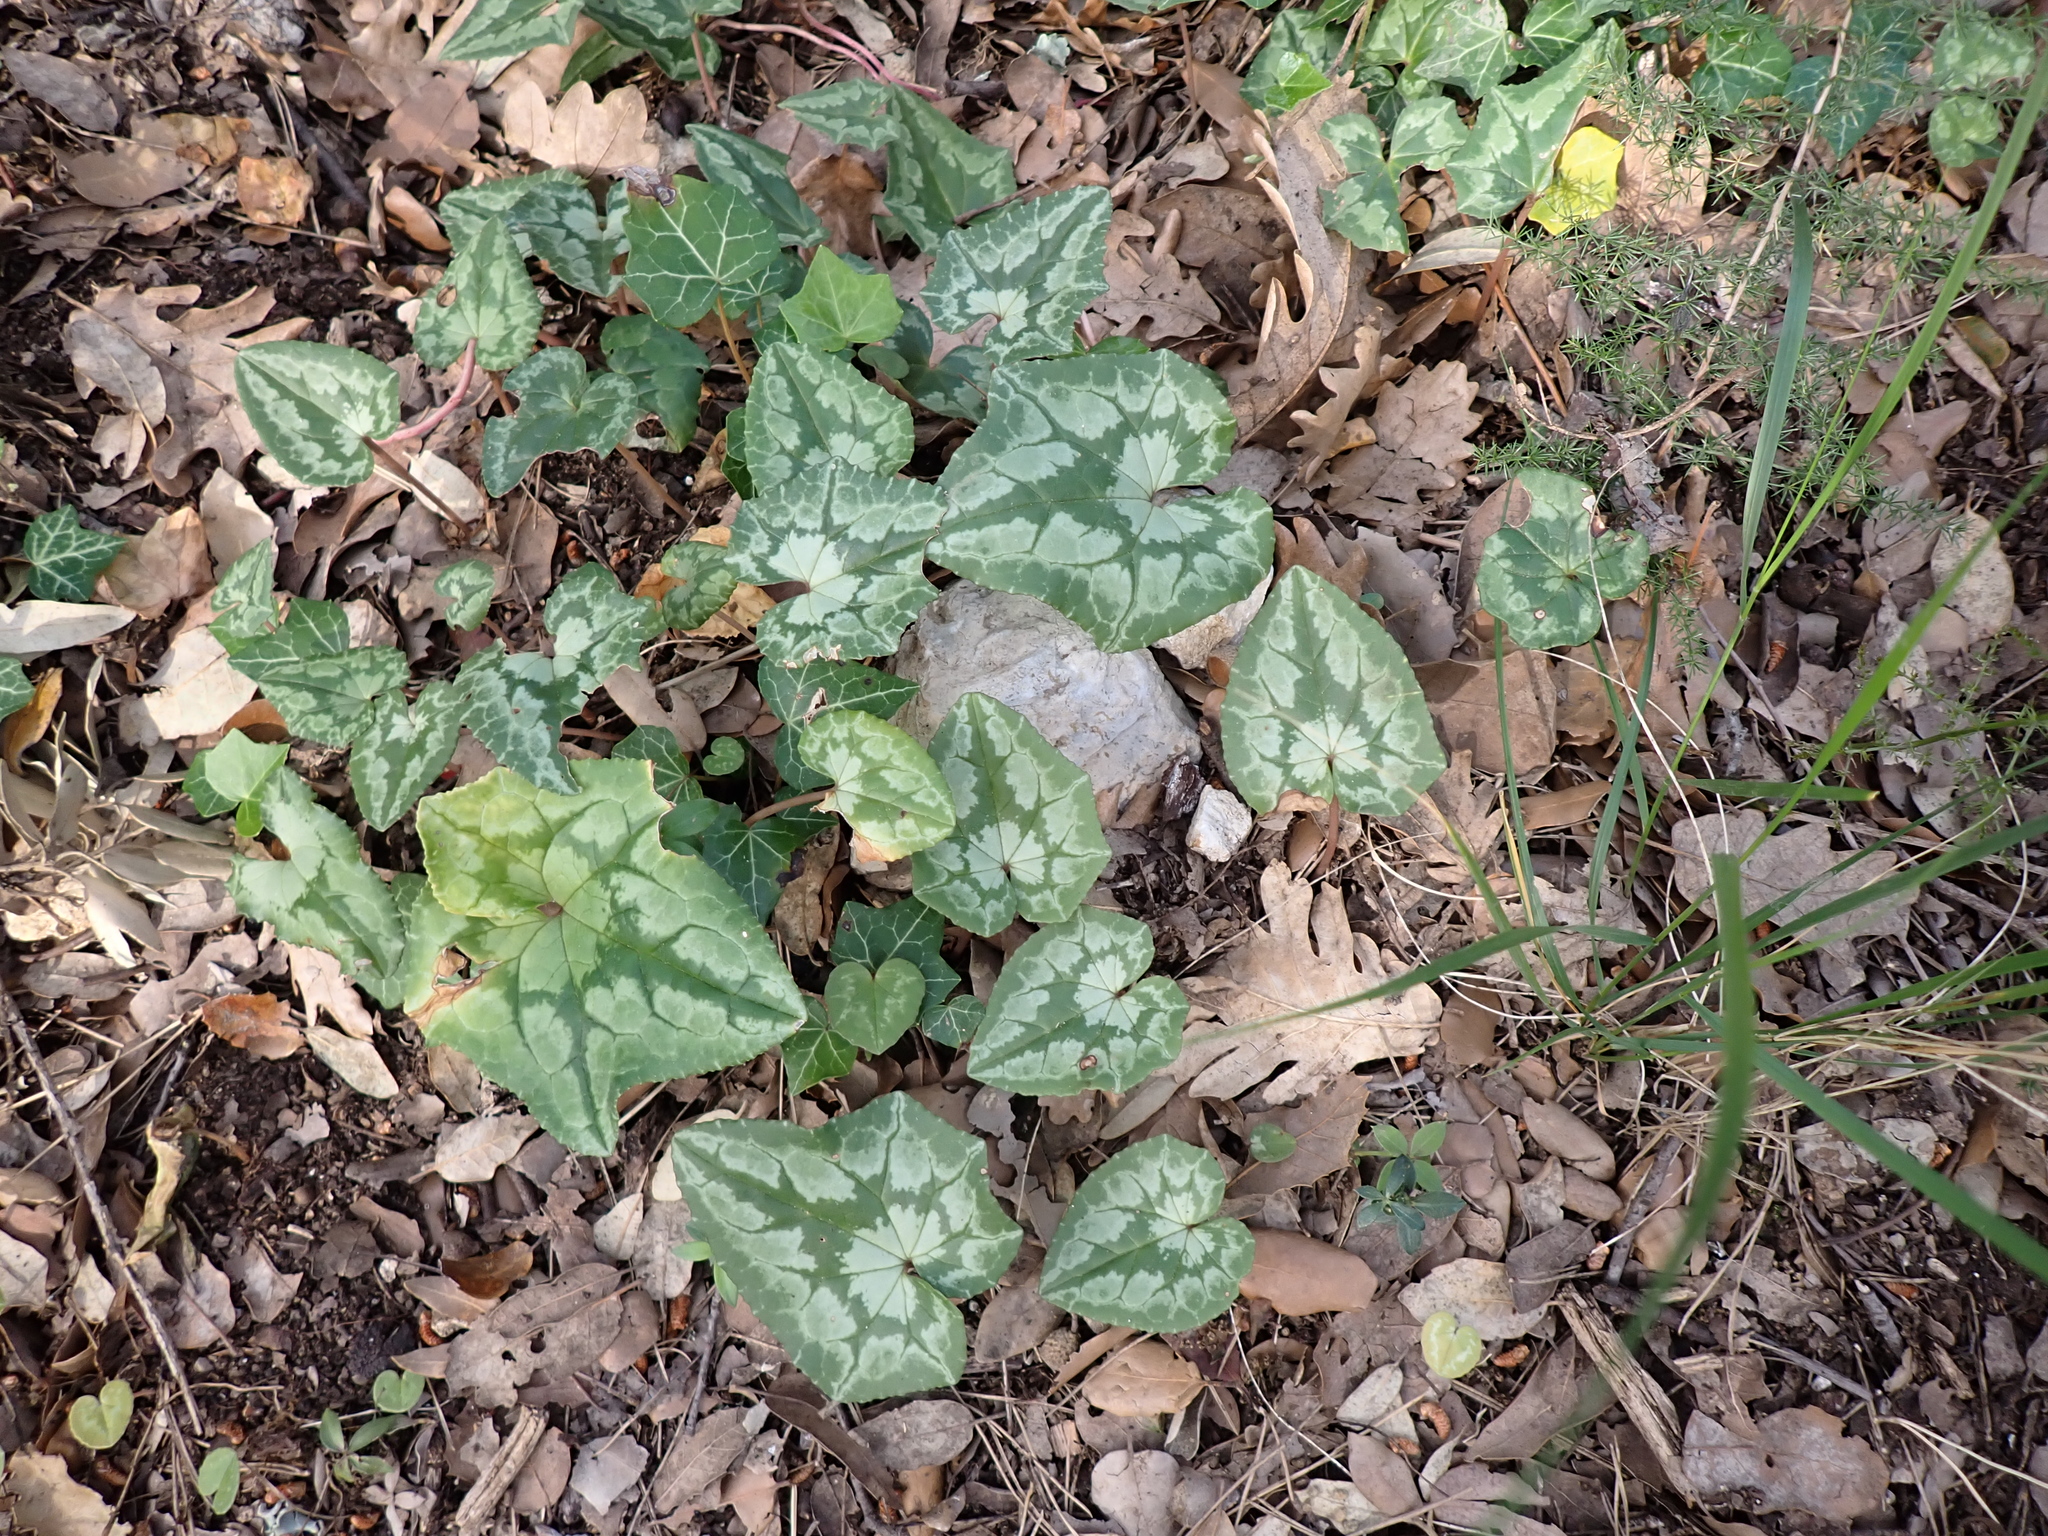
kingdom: Plantae
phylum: Tracheophyta
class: Magnoliopsida
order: Ericales
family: Primulaceae
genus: Cyclamen
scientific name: Cyclamen hederifolium
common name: Sowbread
